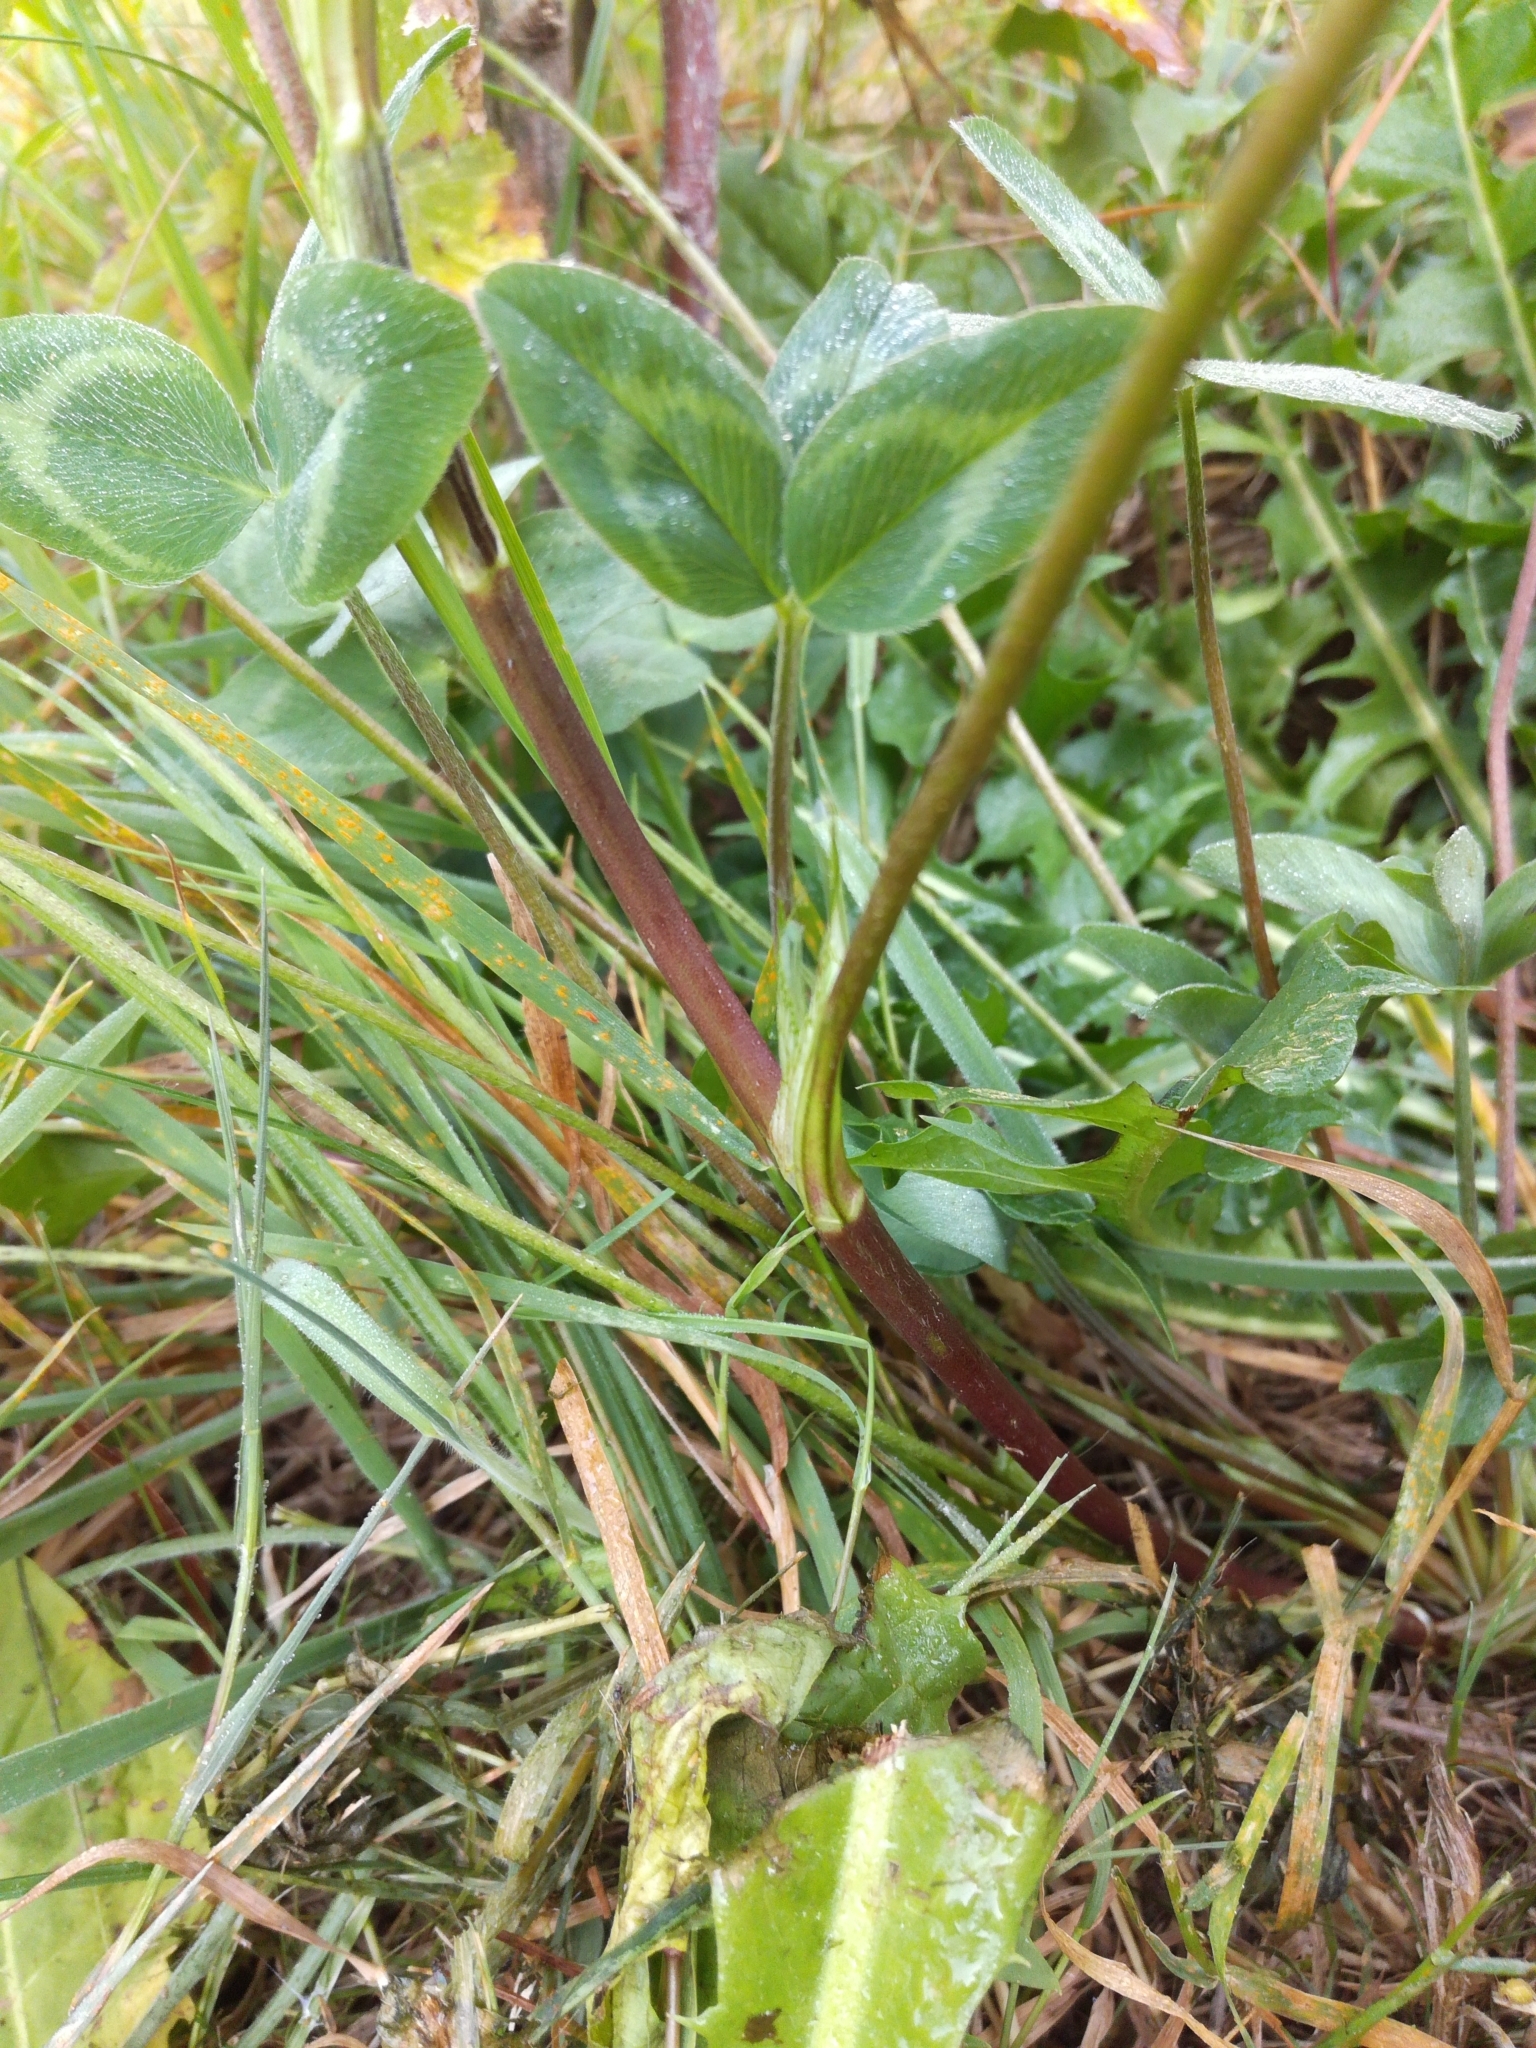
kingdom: Plantae
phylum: Tracheophyta
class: Magnoliopsida
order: Fabales
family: Fabaceae
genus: Trifolium
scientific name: Trifolium pratense
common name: Red clover
